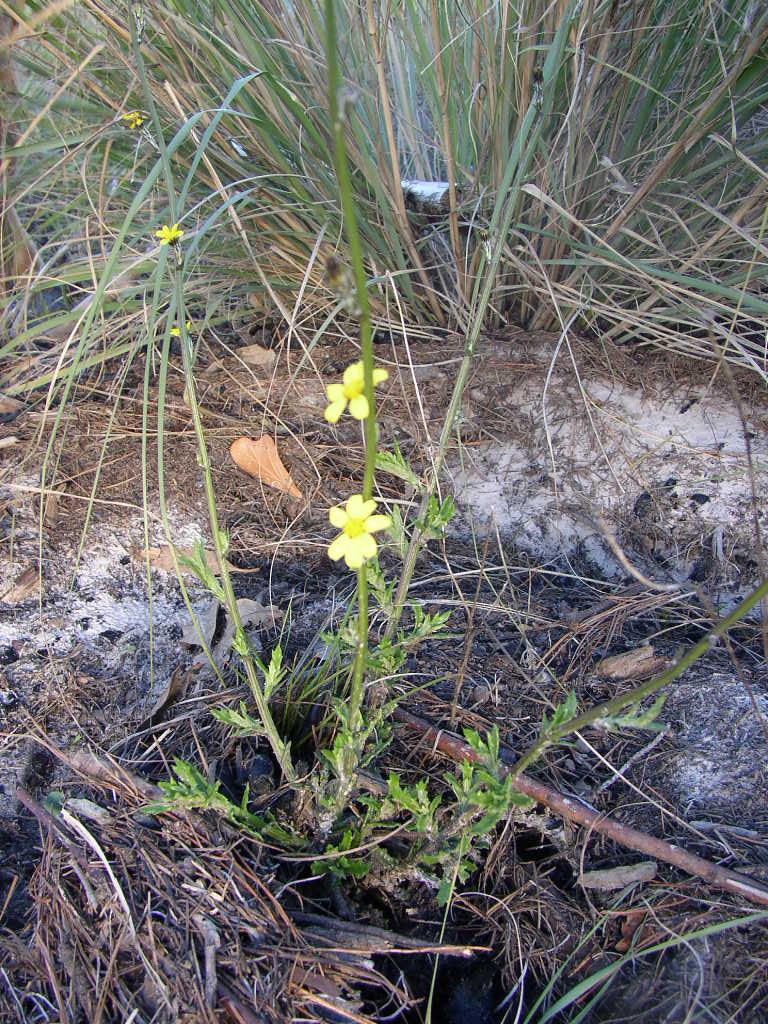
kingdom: Plantae
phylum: Tracheophyta
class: Magnoliopsida
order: Asterales
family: Asteraceae
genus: Senecio
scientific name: Senecio pubigerus
